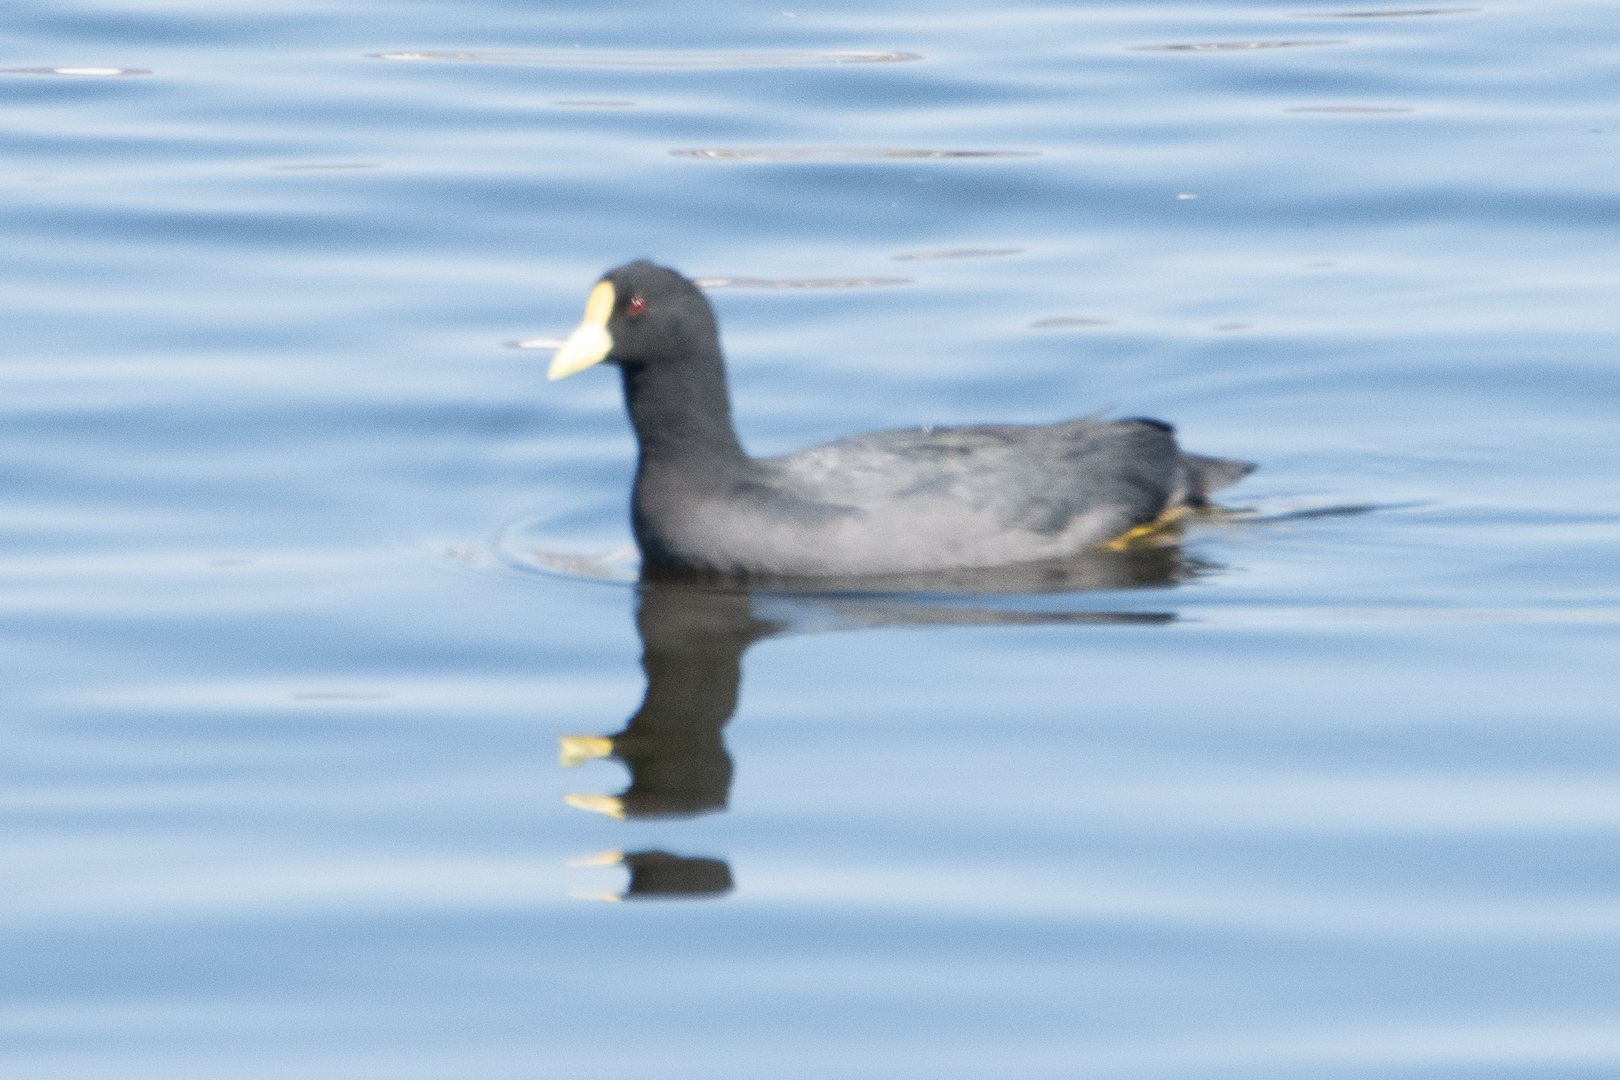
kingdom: Animalia
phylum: Chordata
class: Aves
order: Gruiformes
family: Rallidae
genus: Fulica
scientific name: Fulica leucoptera
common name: White-winged coot
